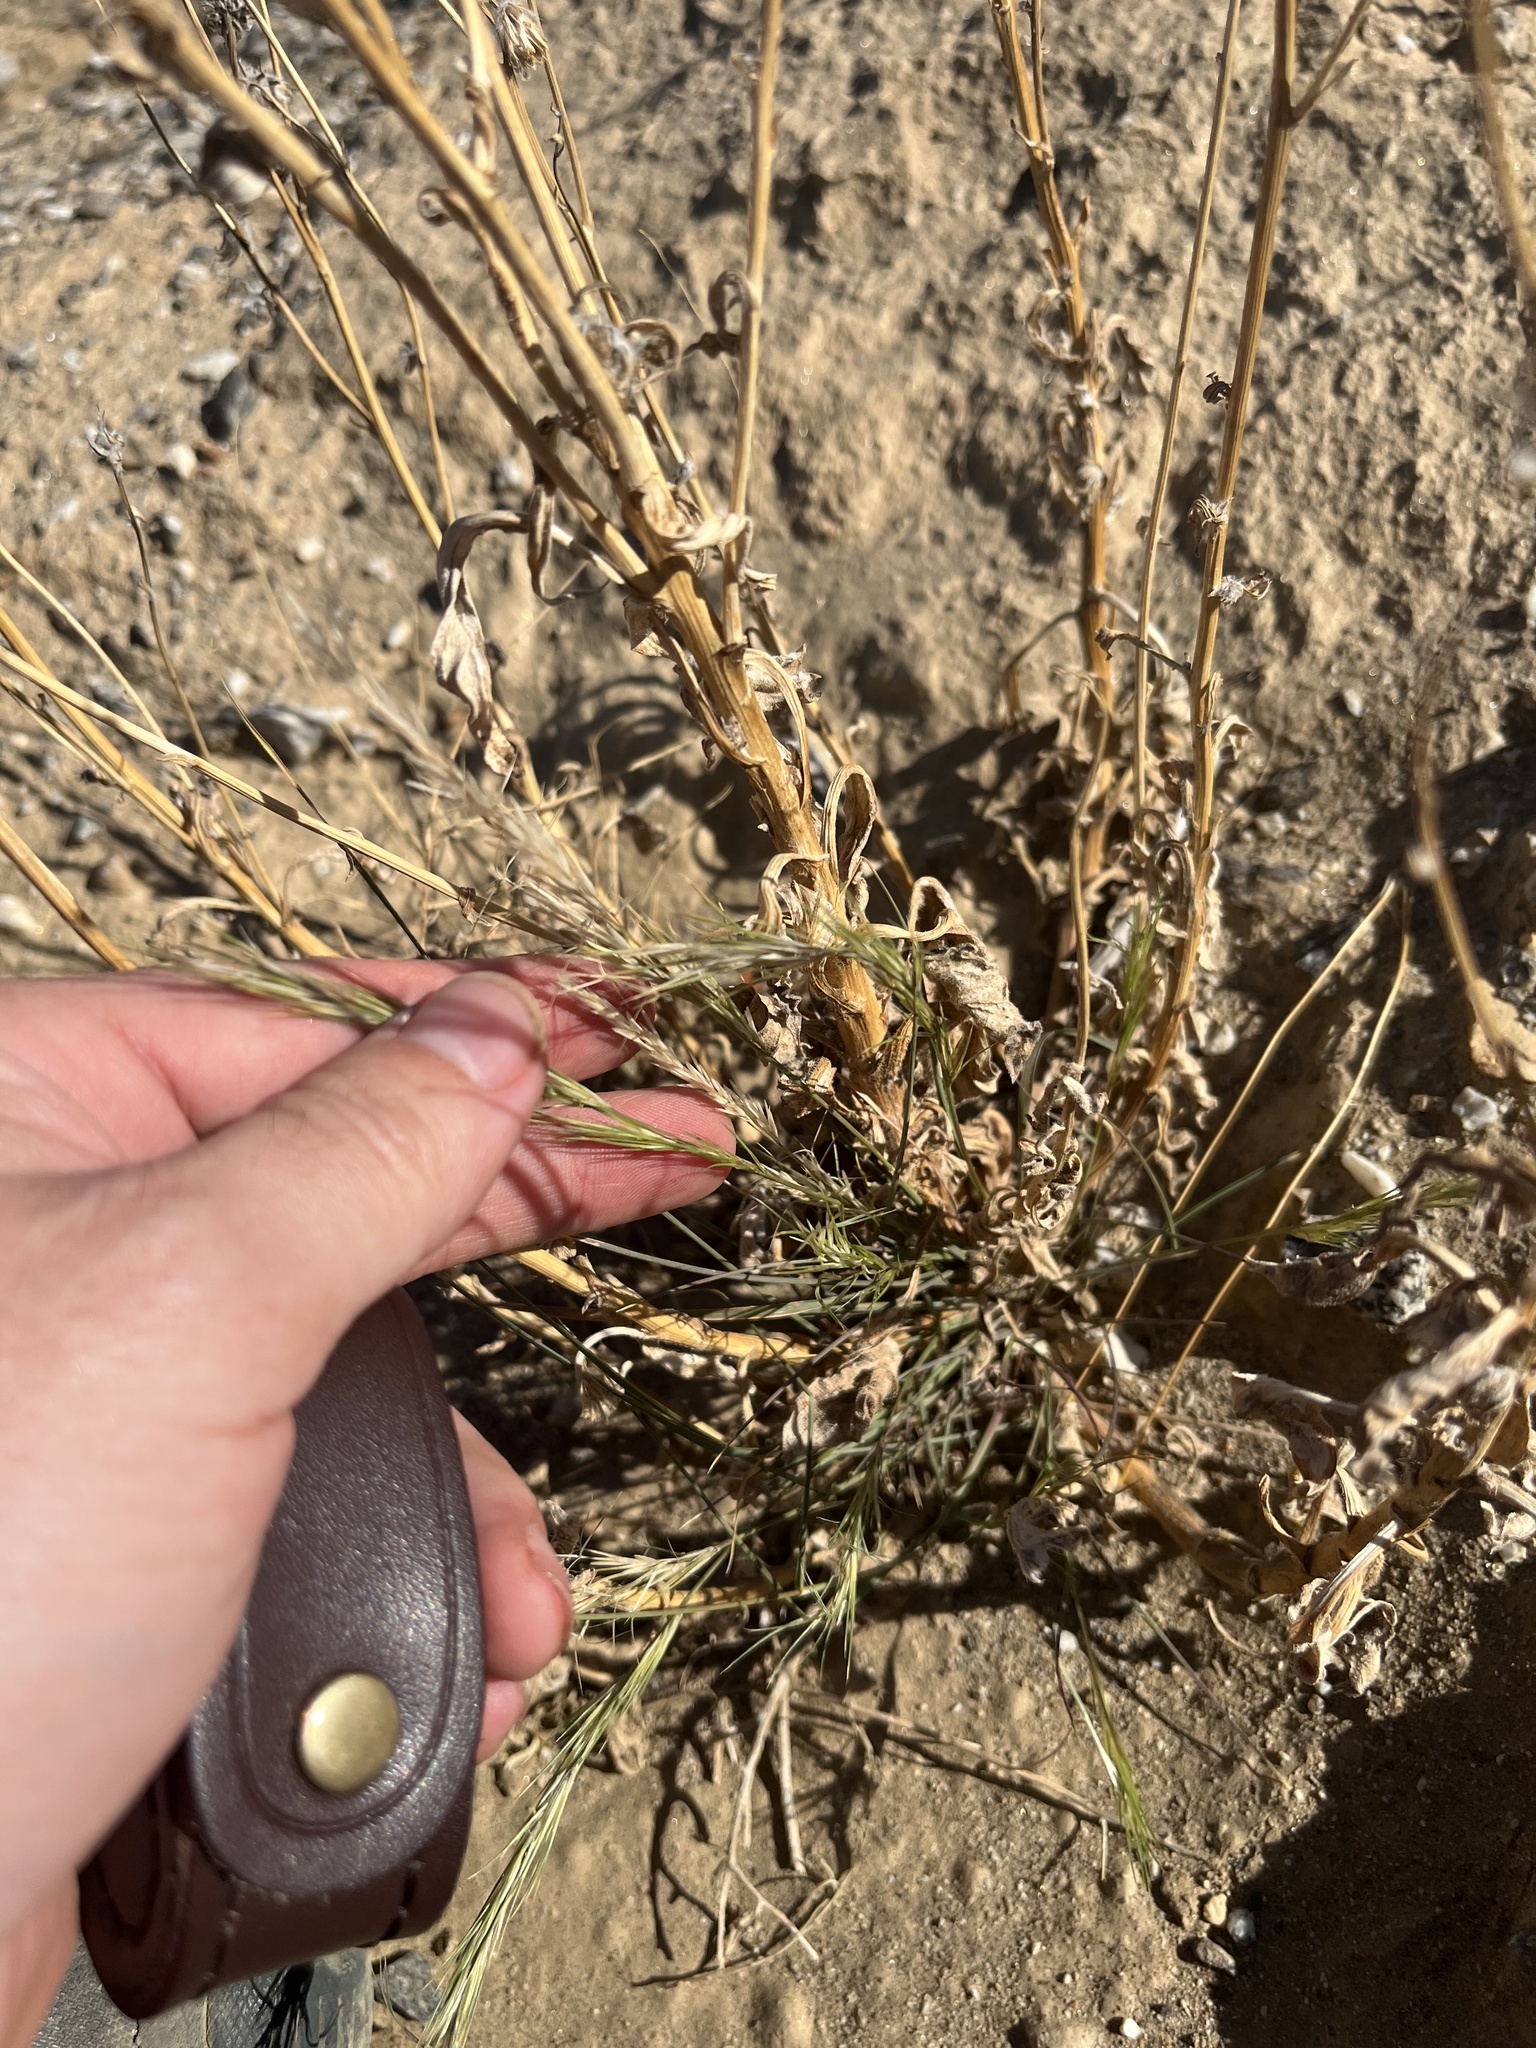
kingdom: Plantae
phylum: Tracheophyta
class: Liliopsida
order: Poales
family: Poaceae
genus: Aristida
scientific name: Aristida adscensionis
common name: Sixweeks threeawn
